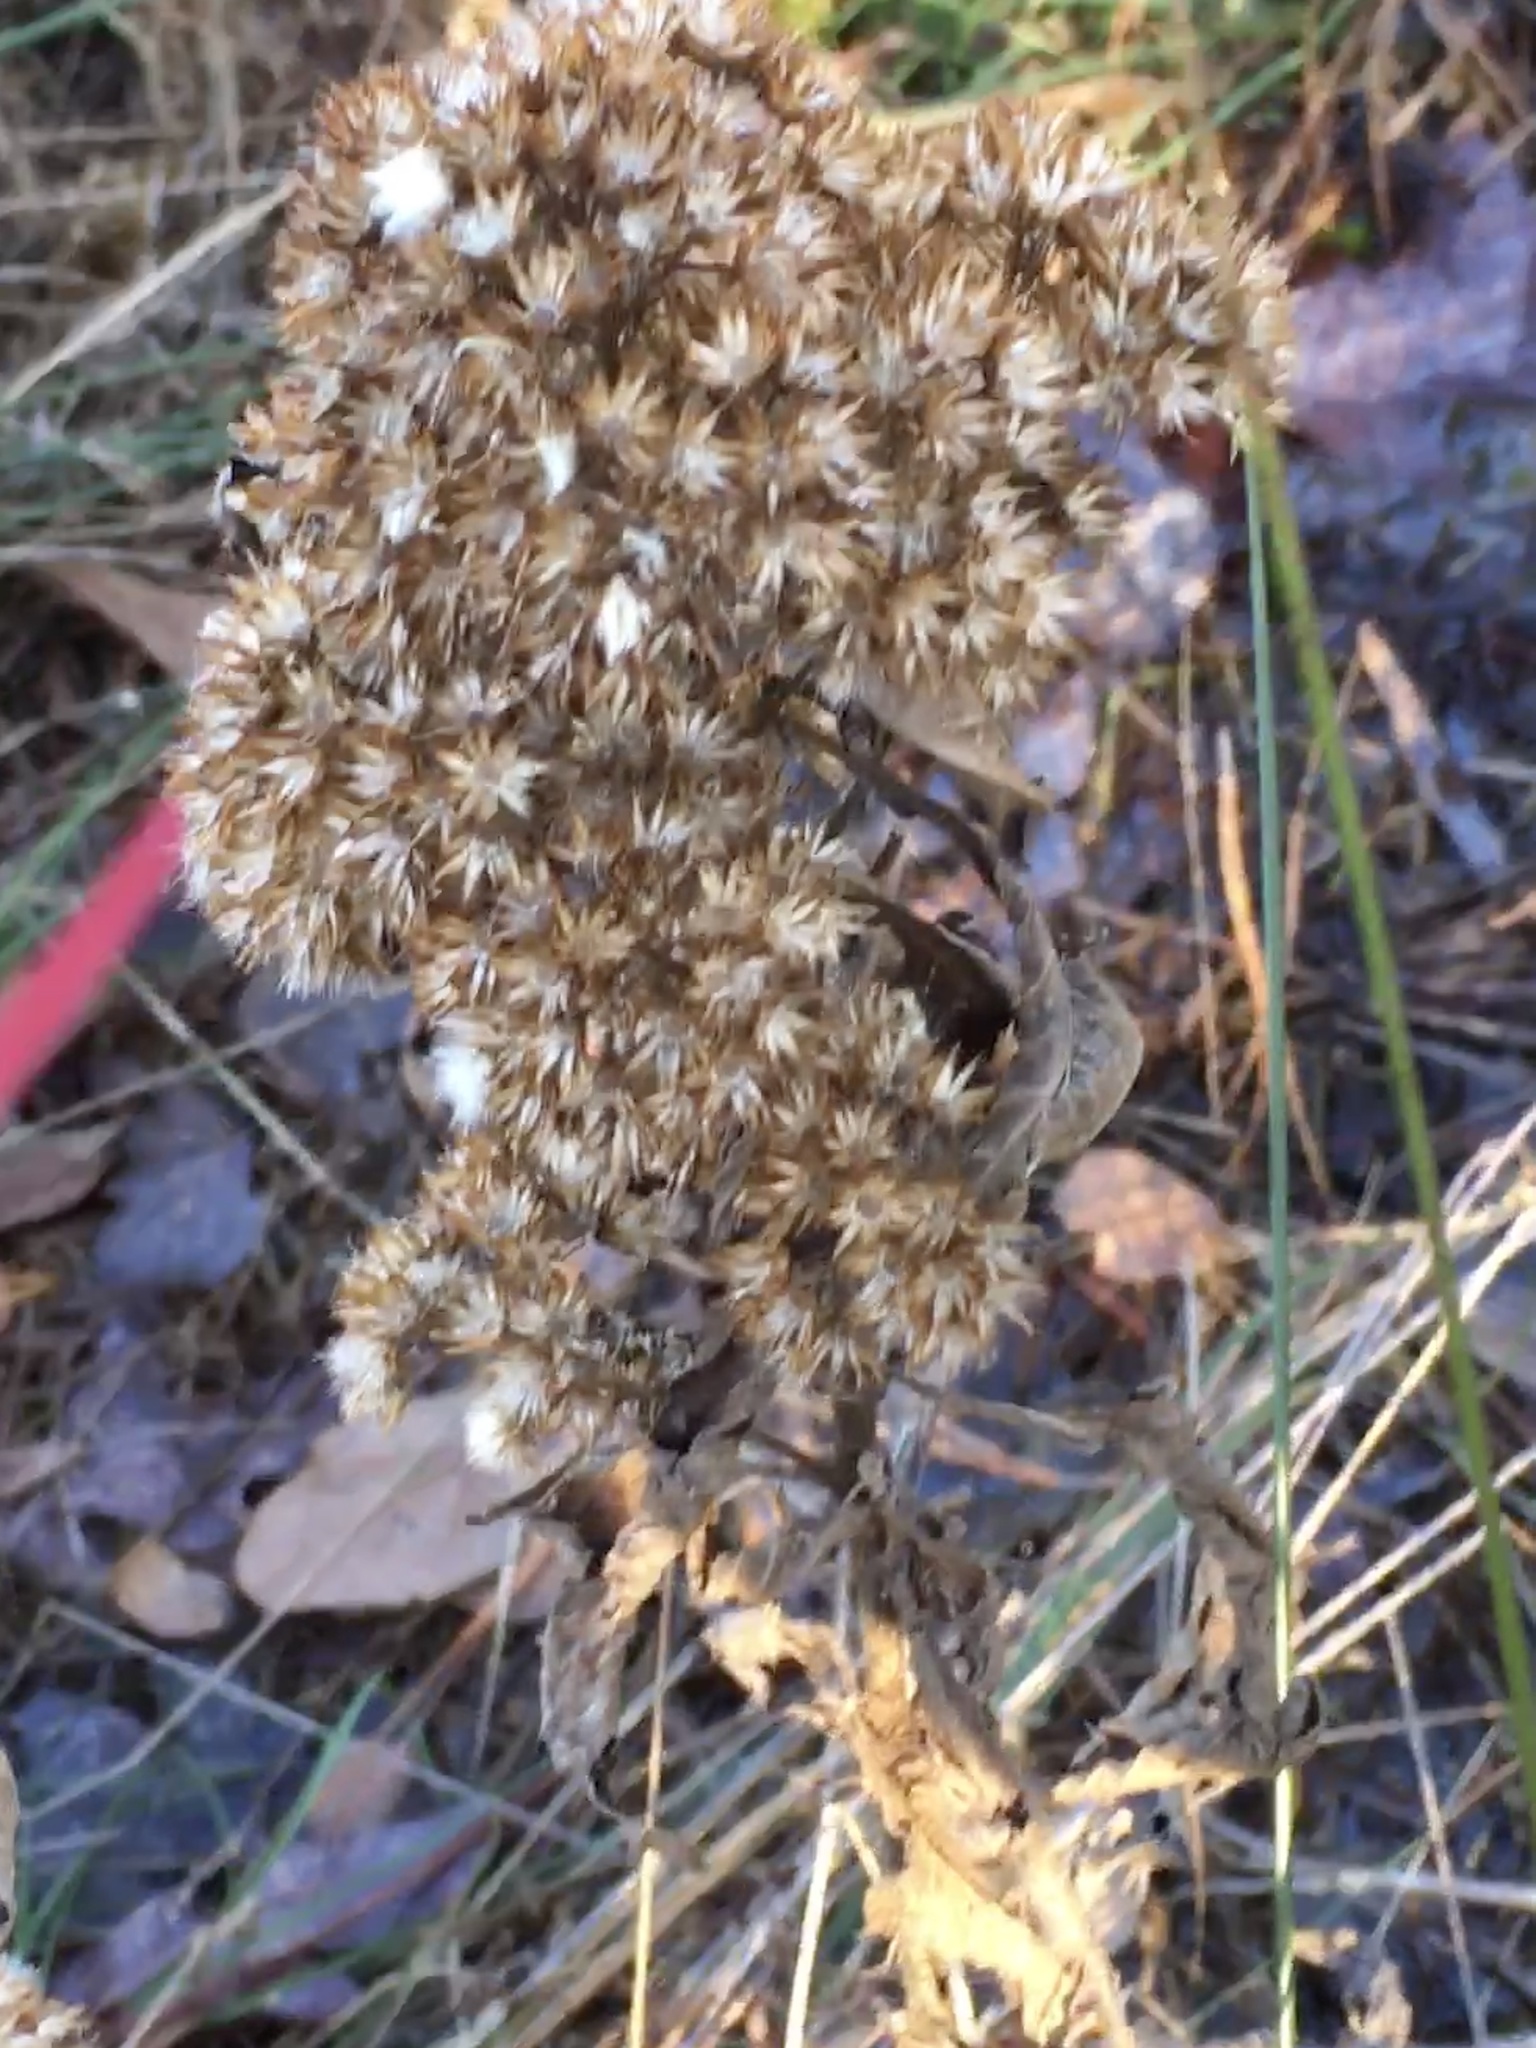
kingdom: Plantae
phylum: Tracheophyta
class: Magnoliopsida
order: Asterales
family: Asteraceae
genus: Pluchea
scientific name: Pluchea camphorata
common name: Camphor pluchea
